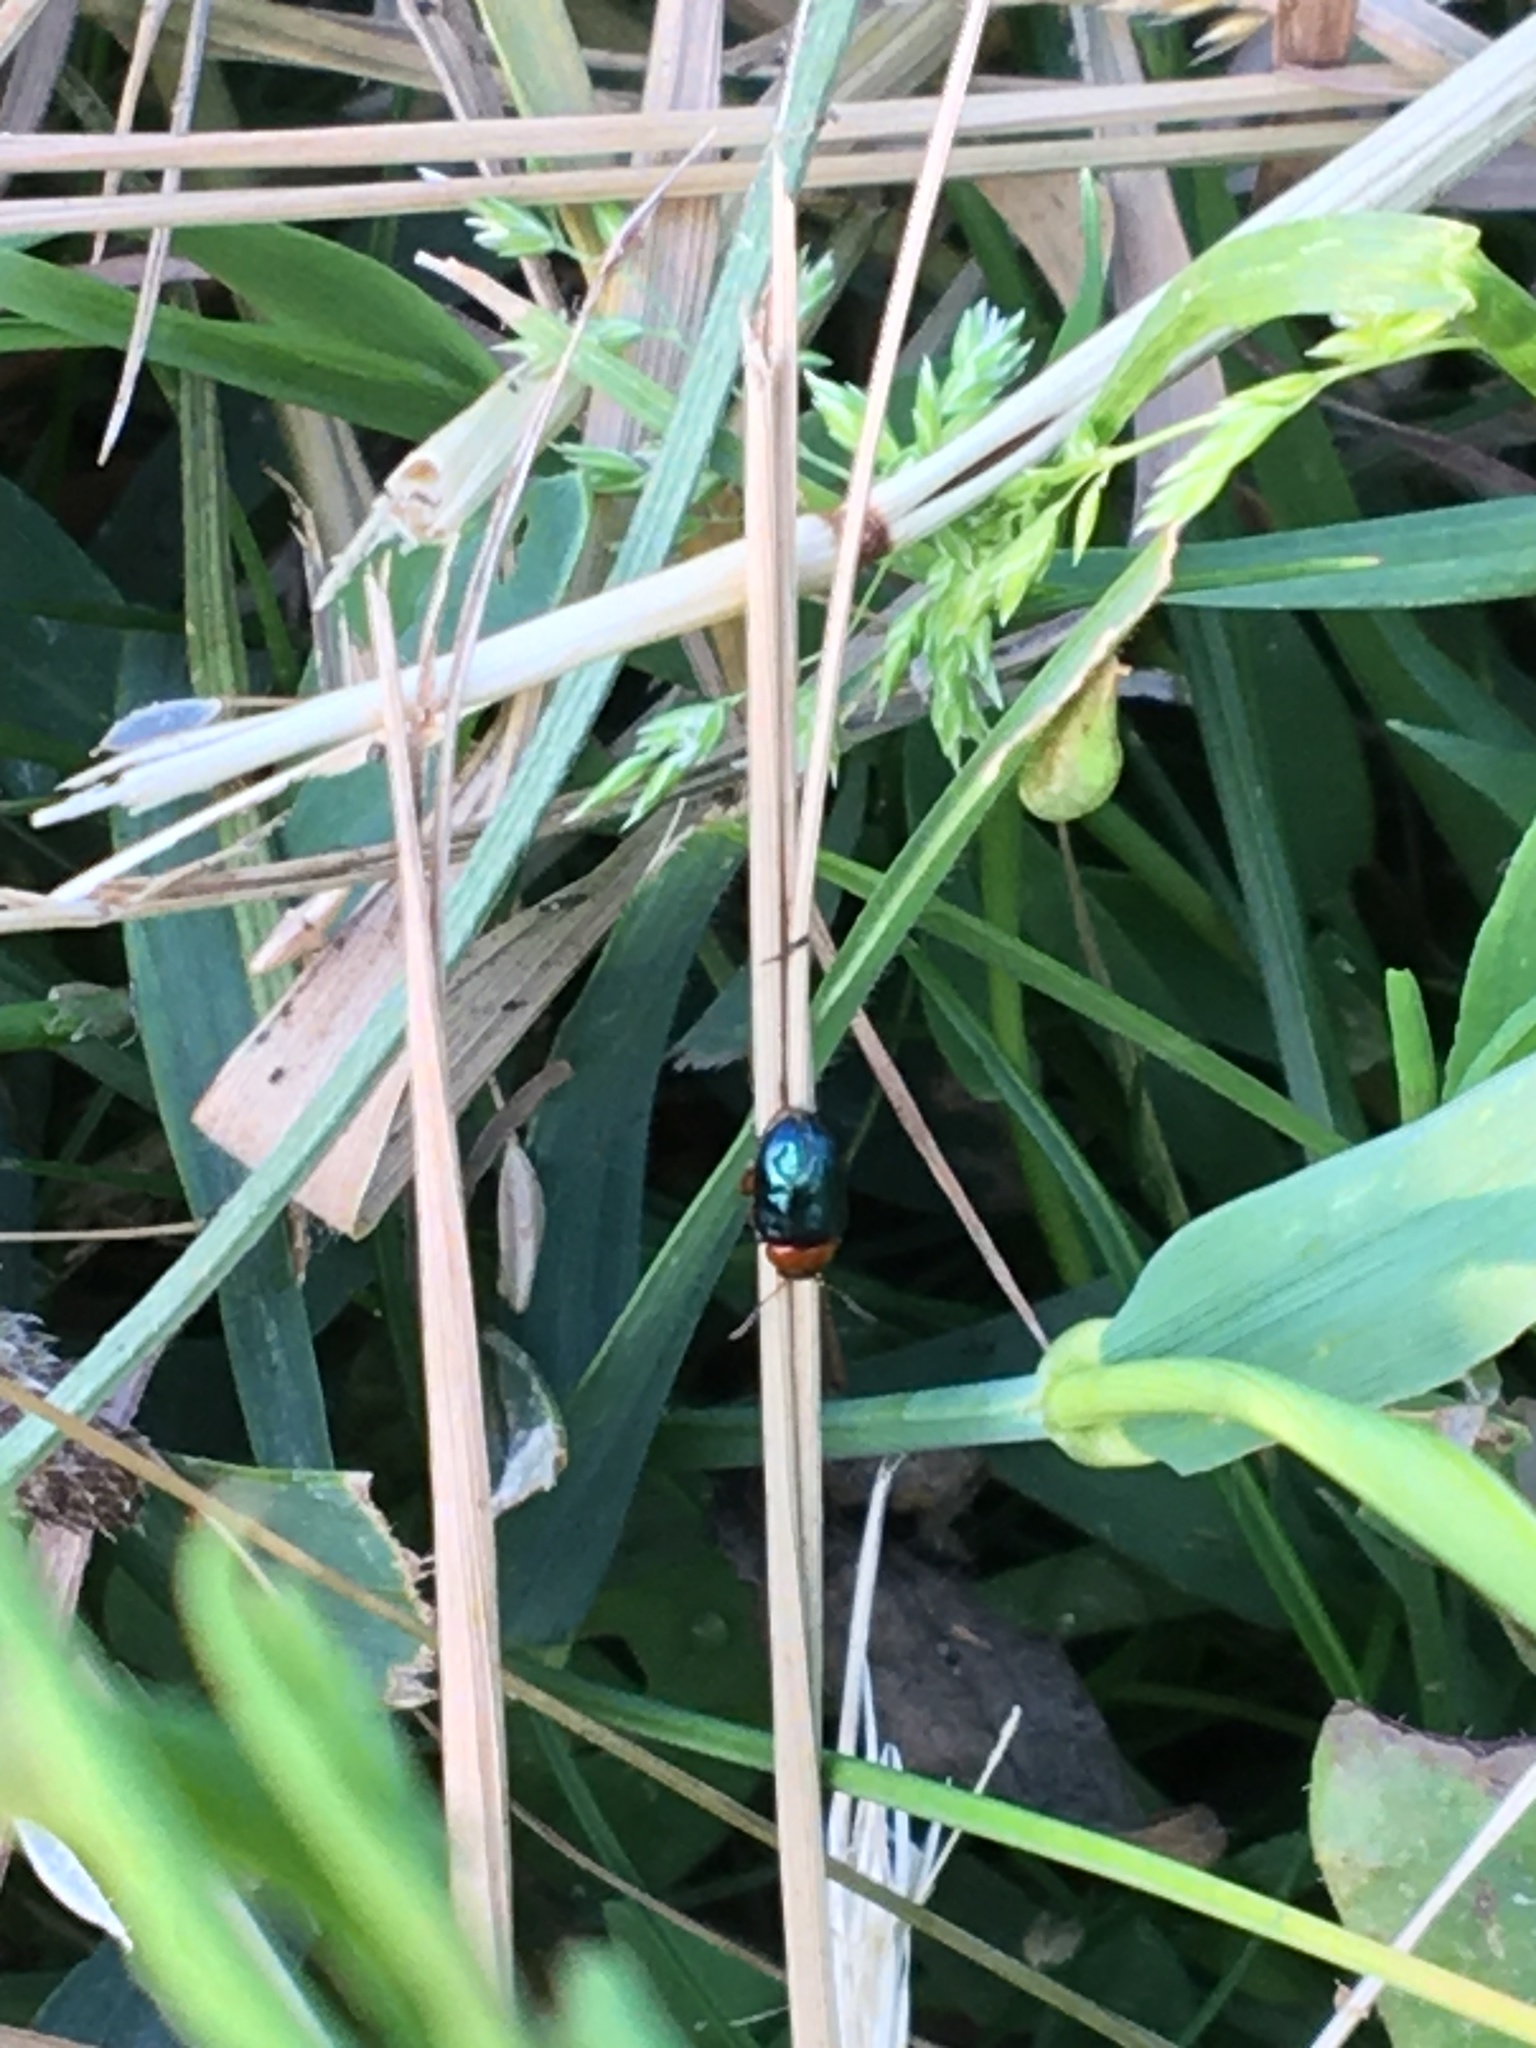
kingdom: Animalia
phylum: Arthropoda
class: Insecta
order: Coleoptera
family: Chrysomelidae
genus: Gastrophysa
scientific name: Gastrophysa polygoni
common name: Knotweed leaf beetle
